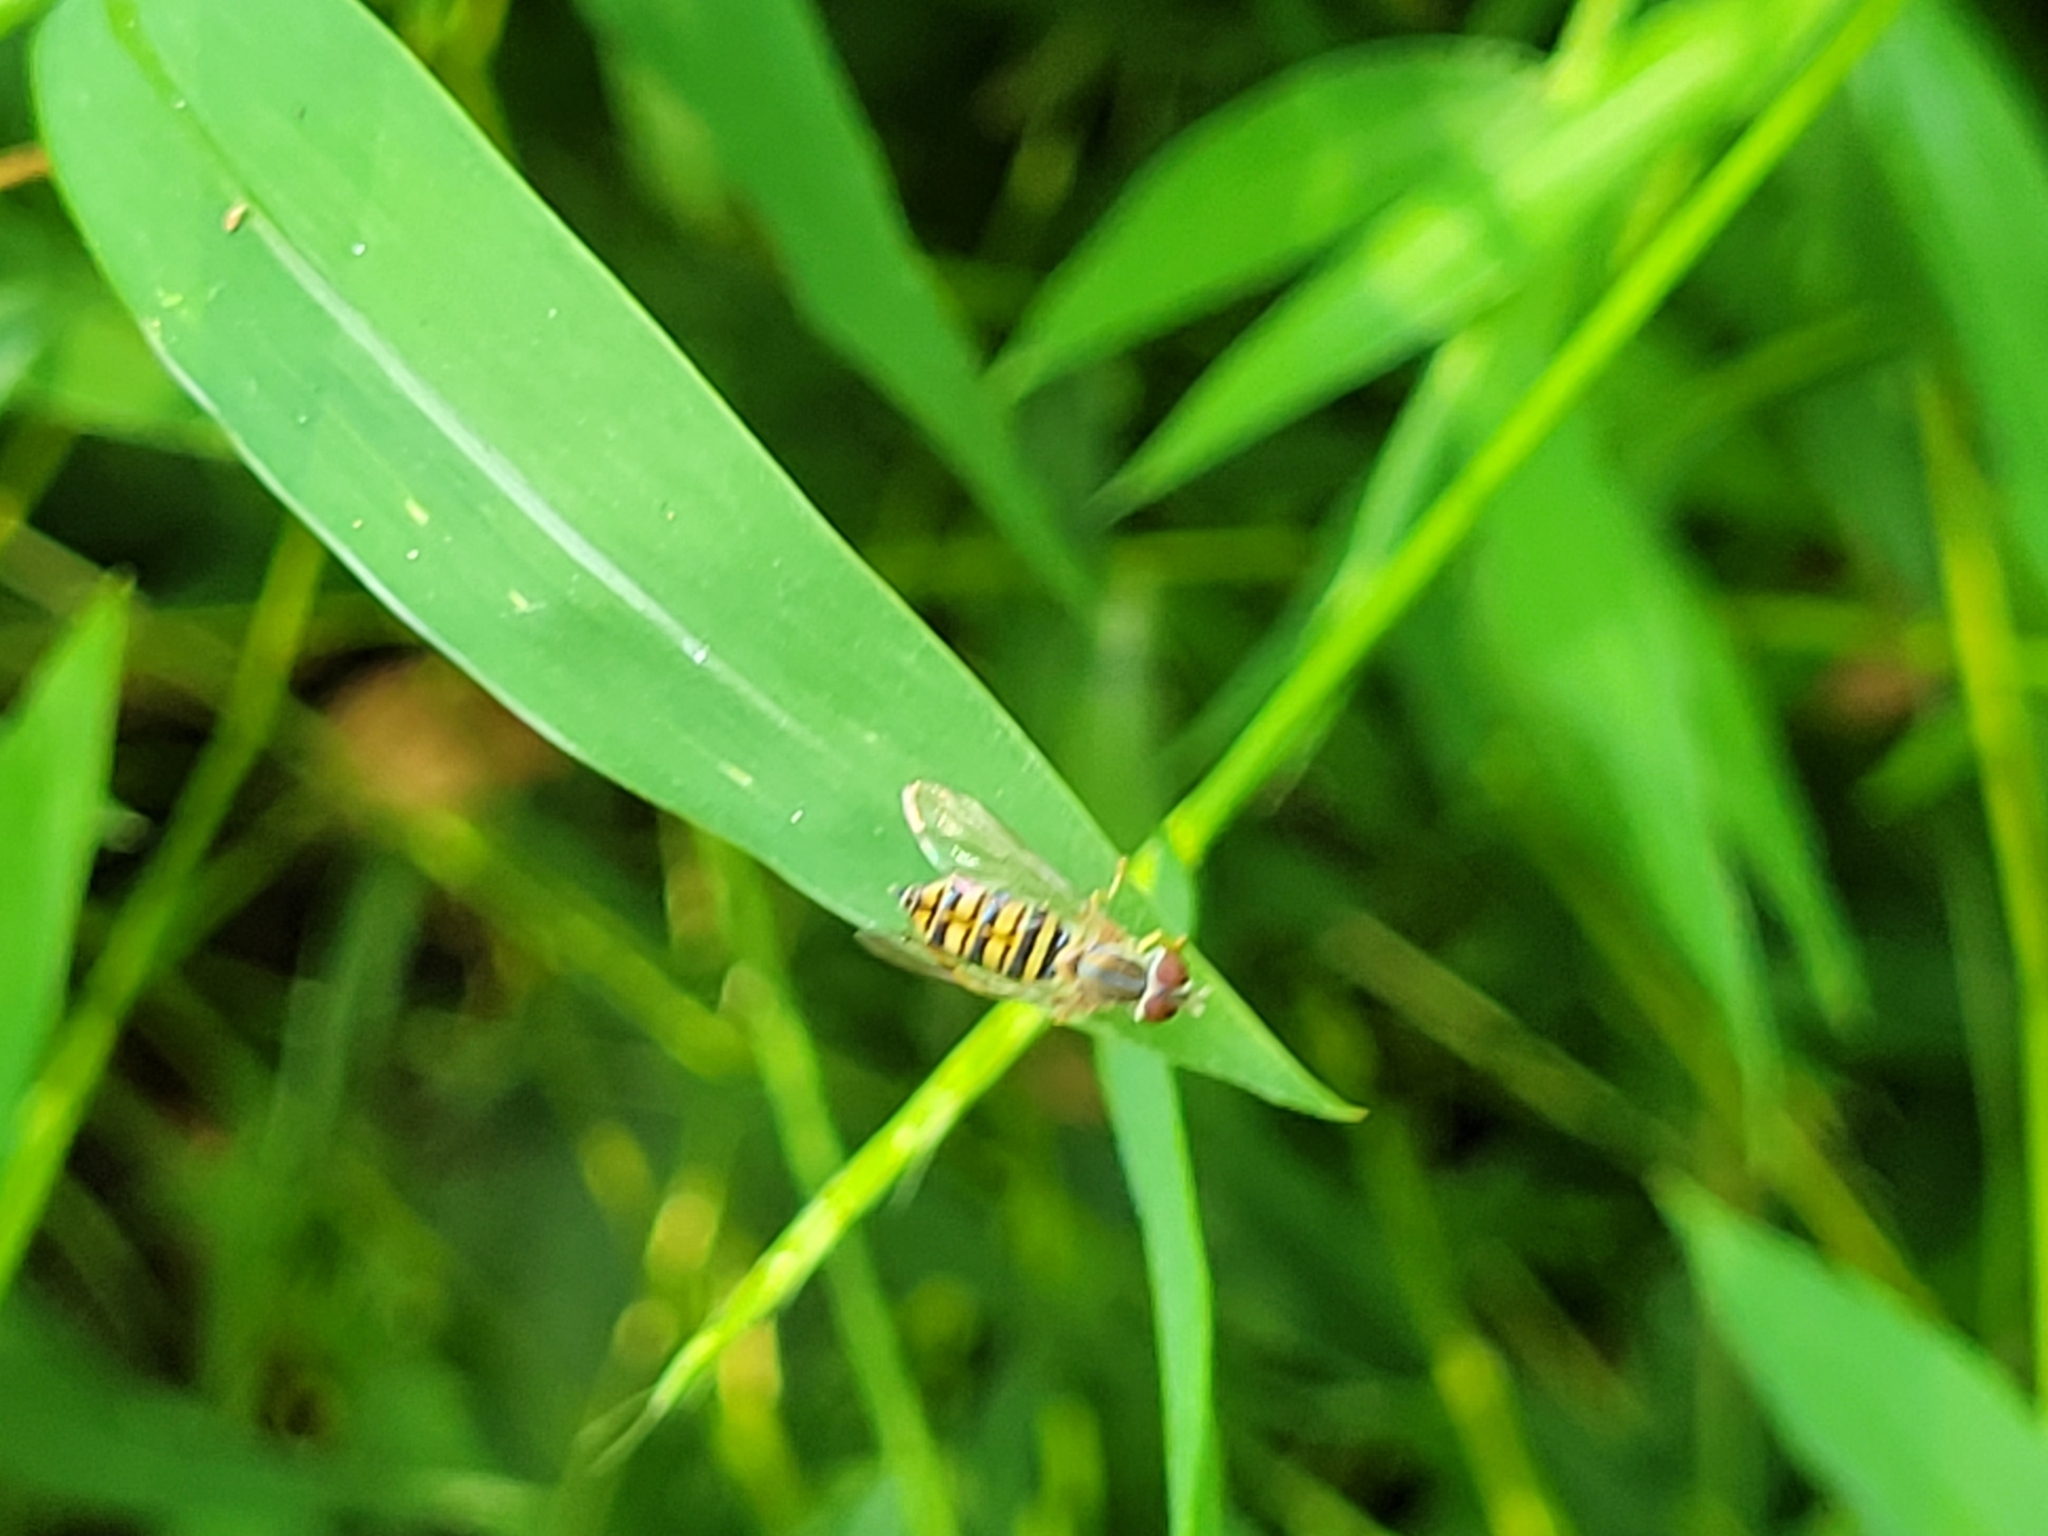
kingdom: Animalia
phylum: Arthropoda
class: Insecta
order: Diptera
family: Syrphidae
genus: Toxomerus
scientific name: Toxomerus politus
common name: Maize calligrapher
